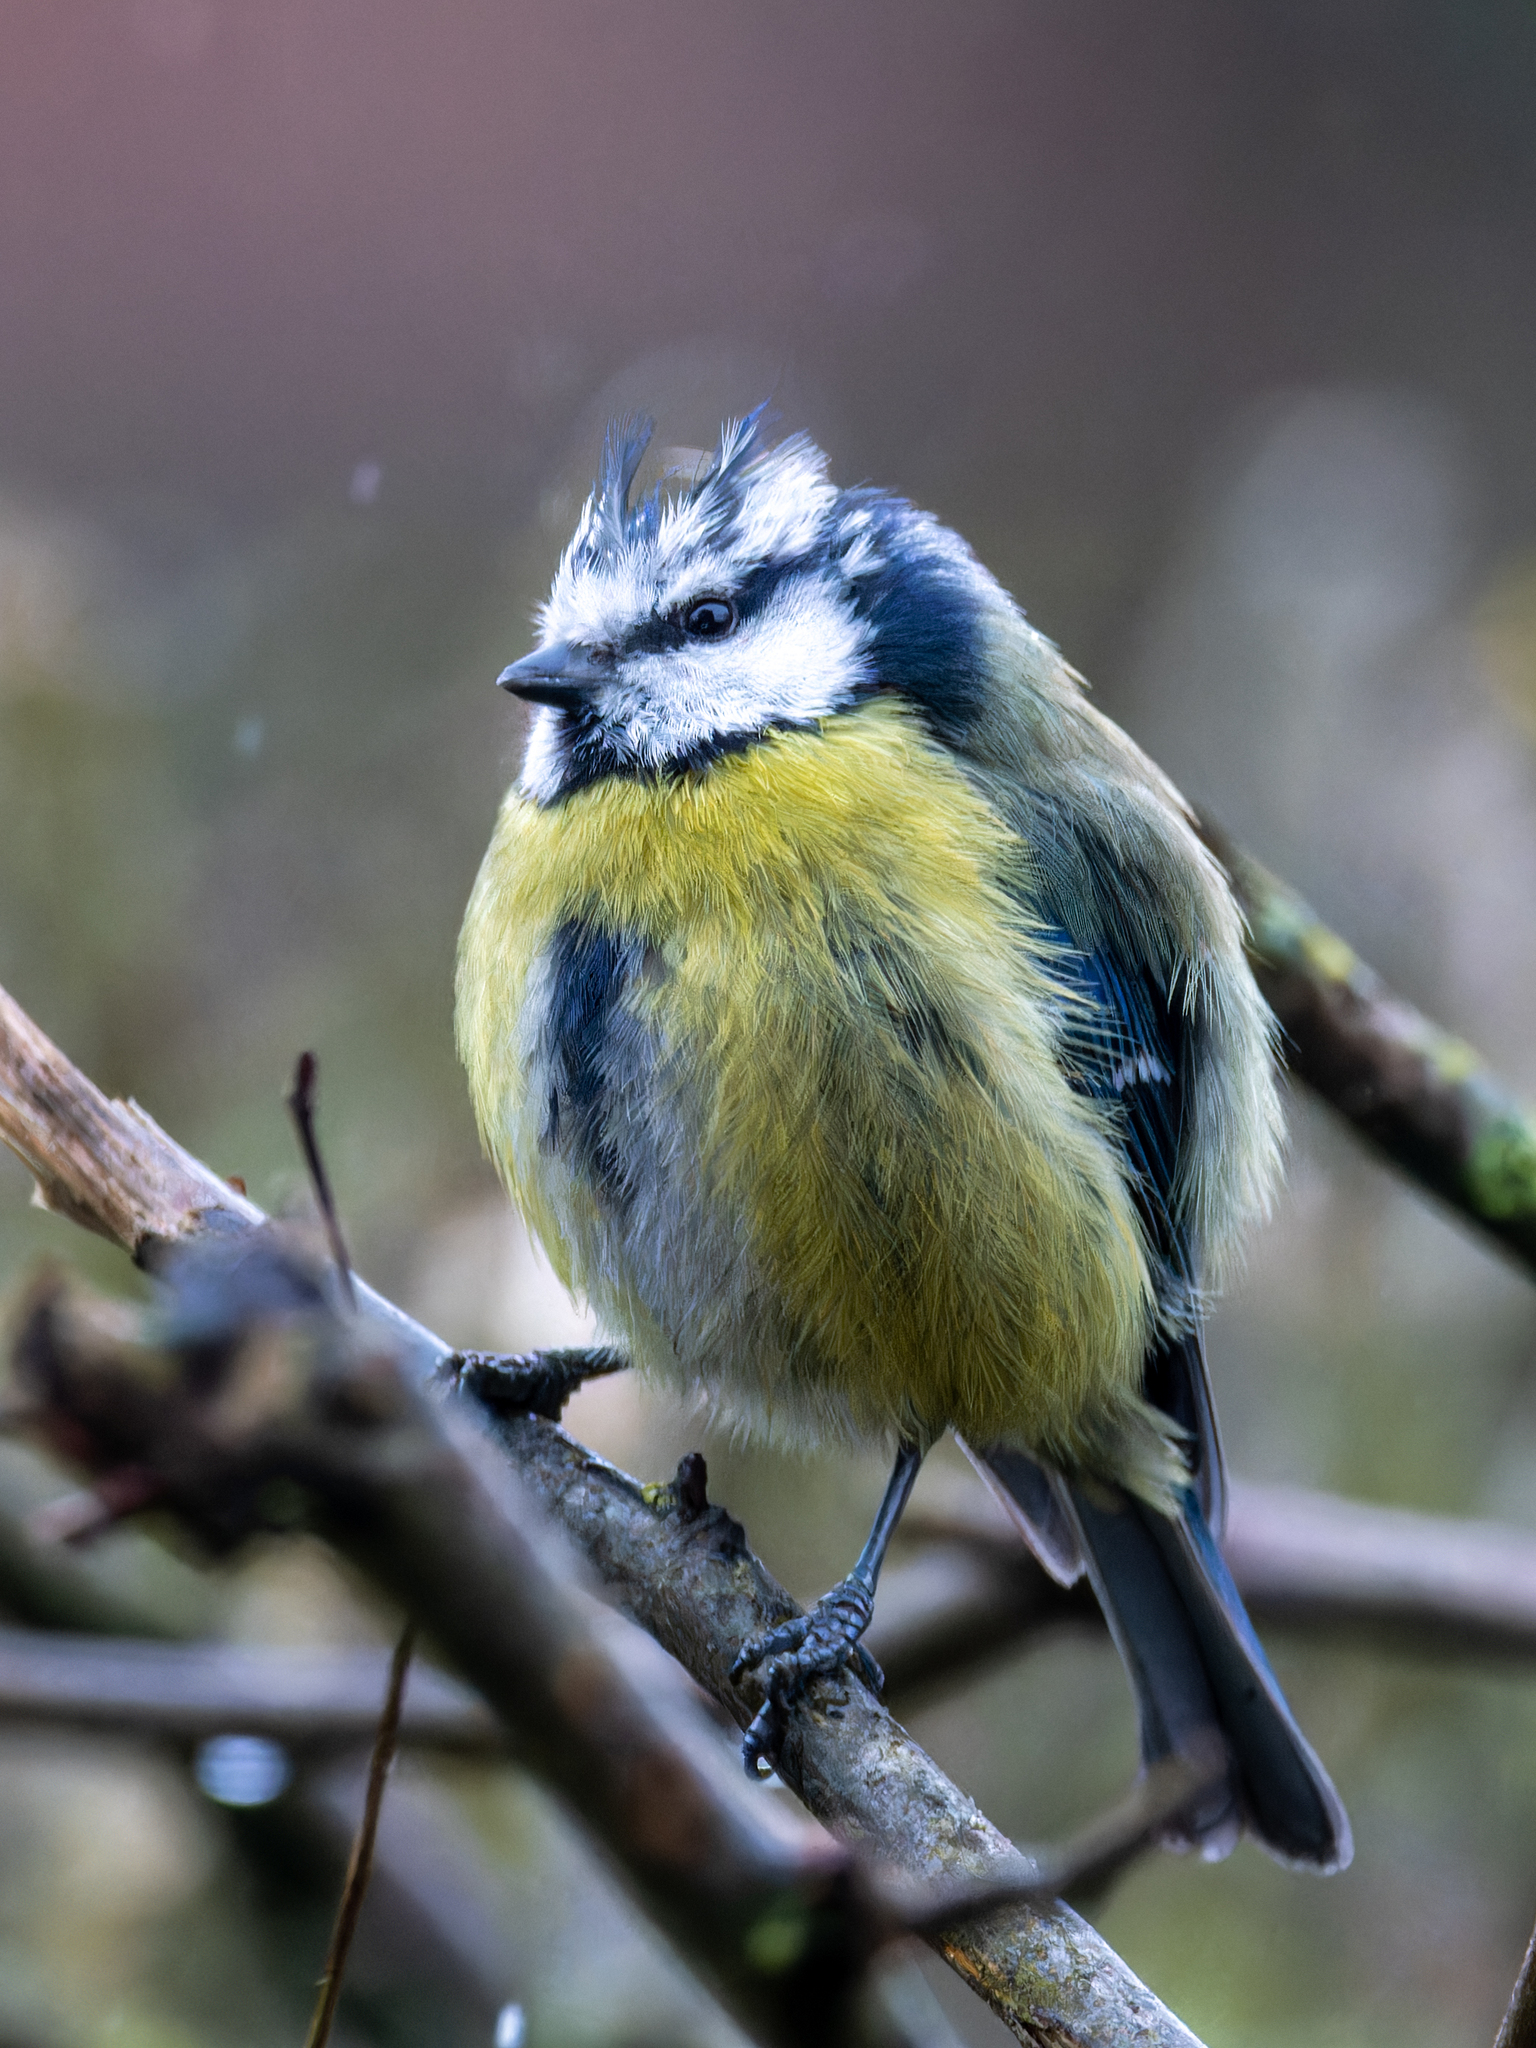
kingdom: Animalia
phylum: Chordata
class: Aves
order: Passeriformes
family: Paridae
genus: Cyanistes
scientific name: Cyanistes caeruleus
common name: Eurasian blue tit
